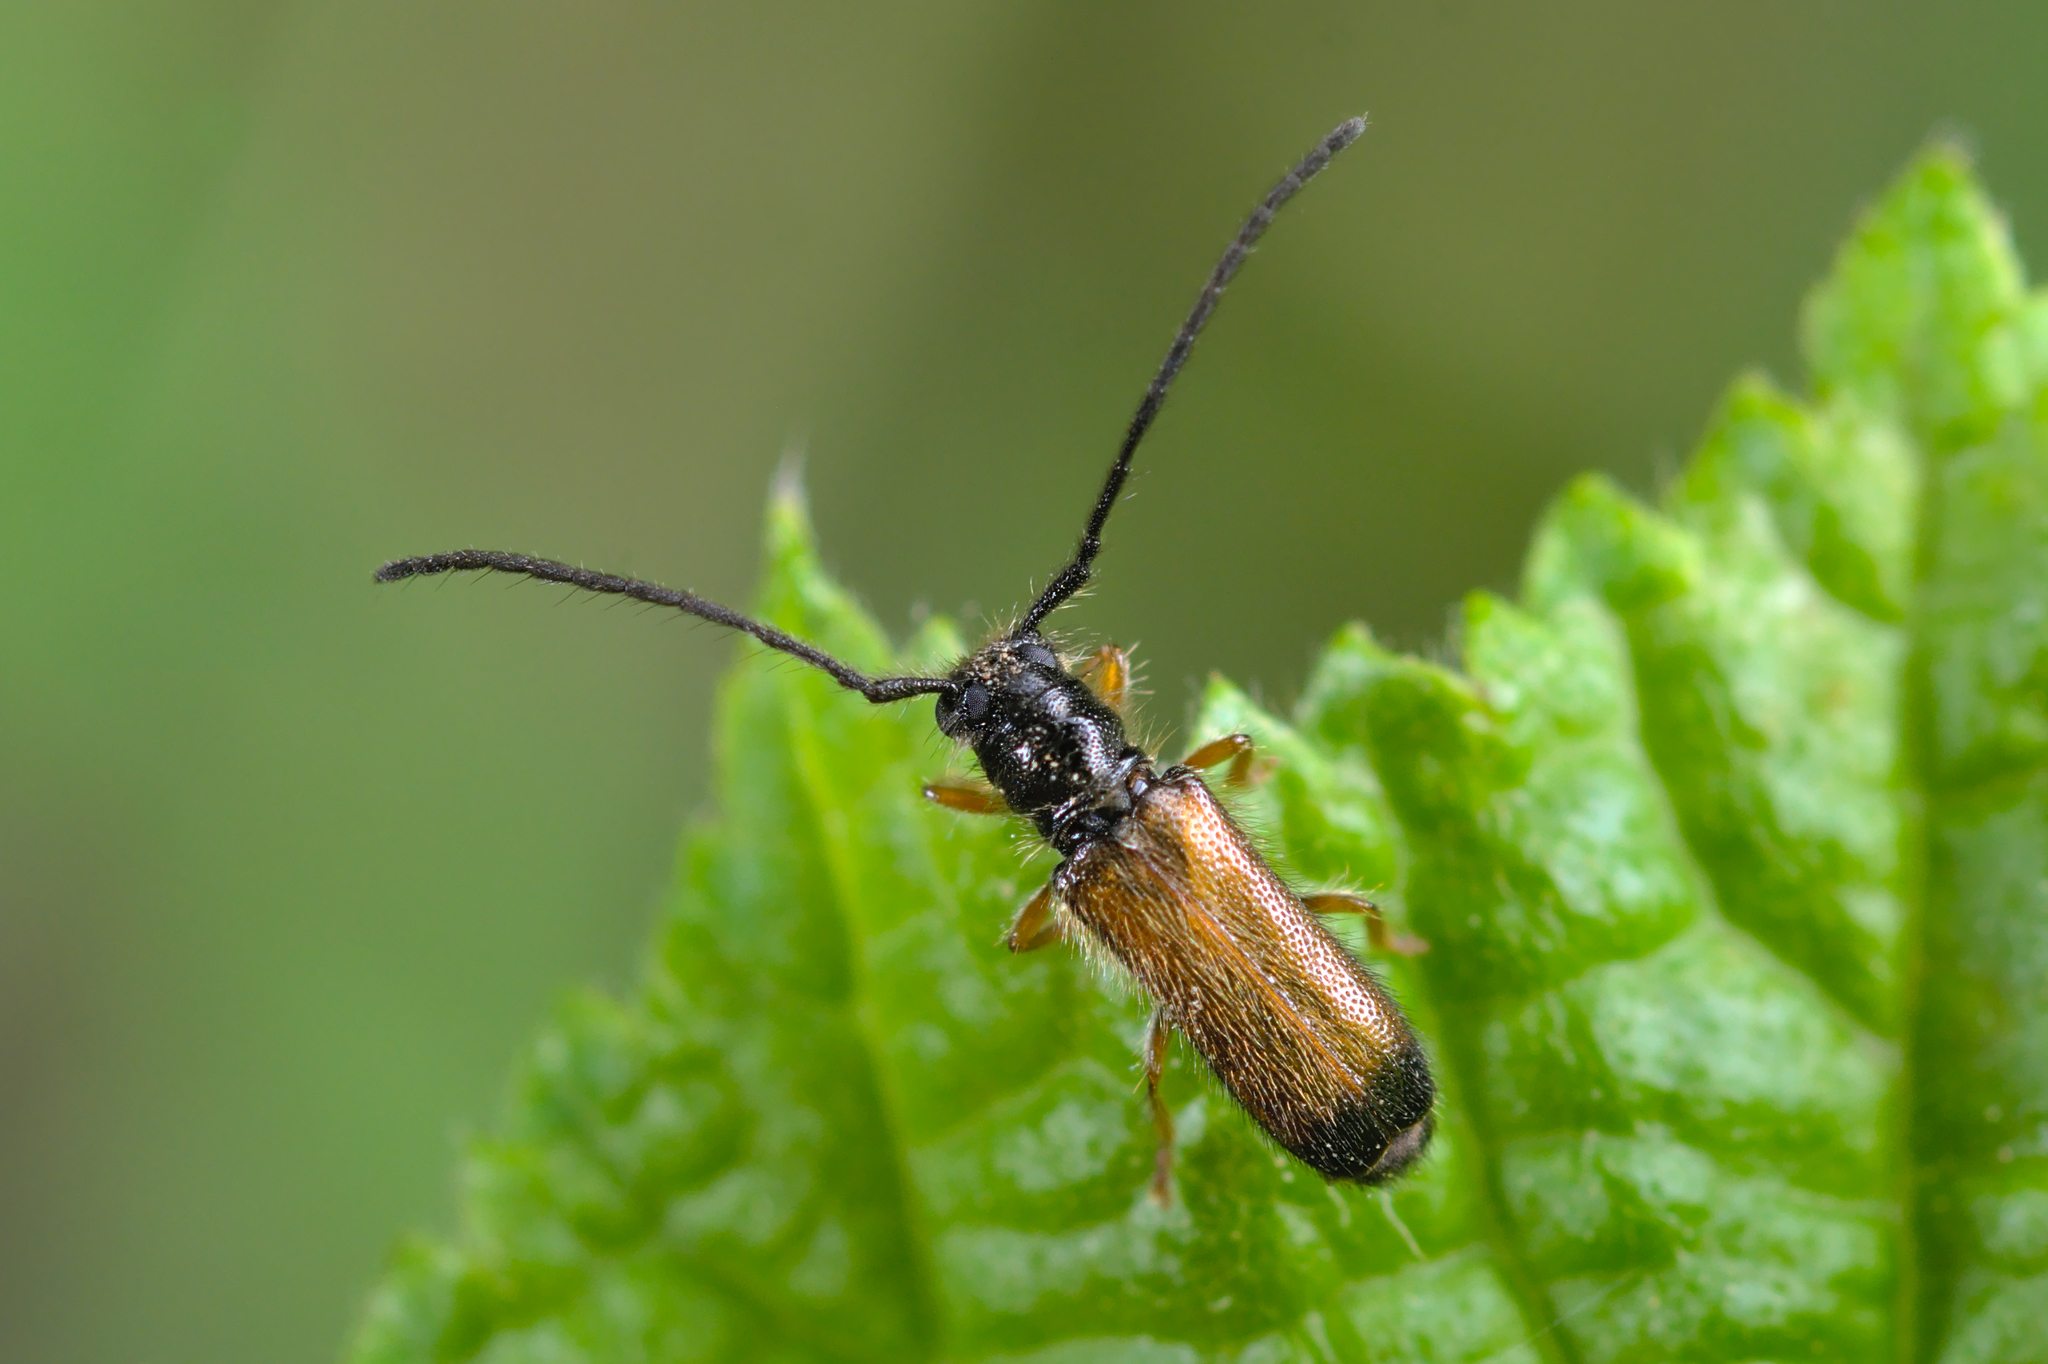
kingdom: Animalia
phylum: Arthropoda
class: Insecta
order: Coleoptera
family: Cerambycidae
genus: Tetrops
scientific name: Tetrops praeustus
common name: Plum beetle
